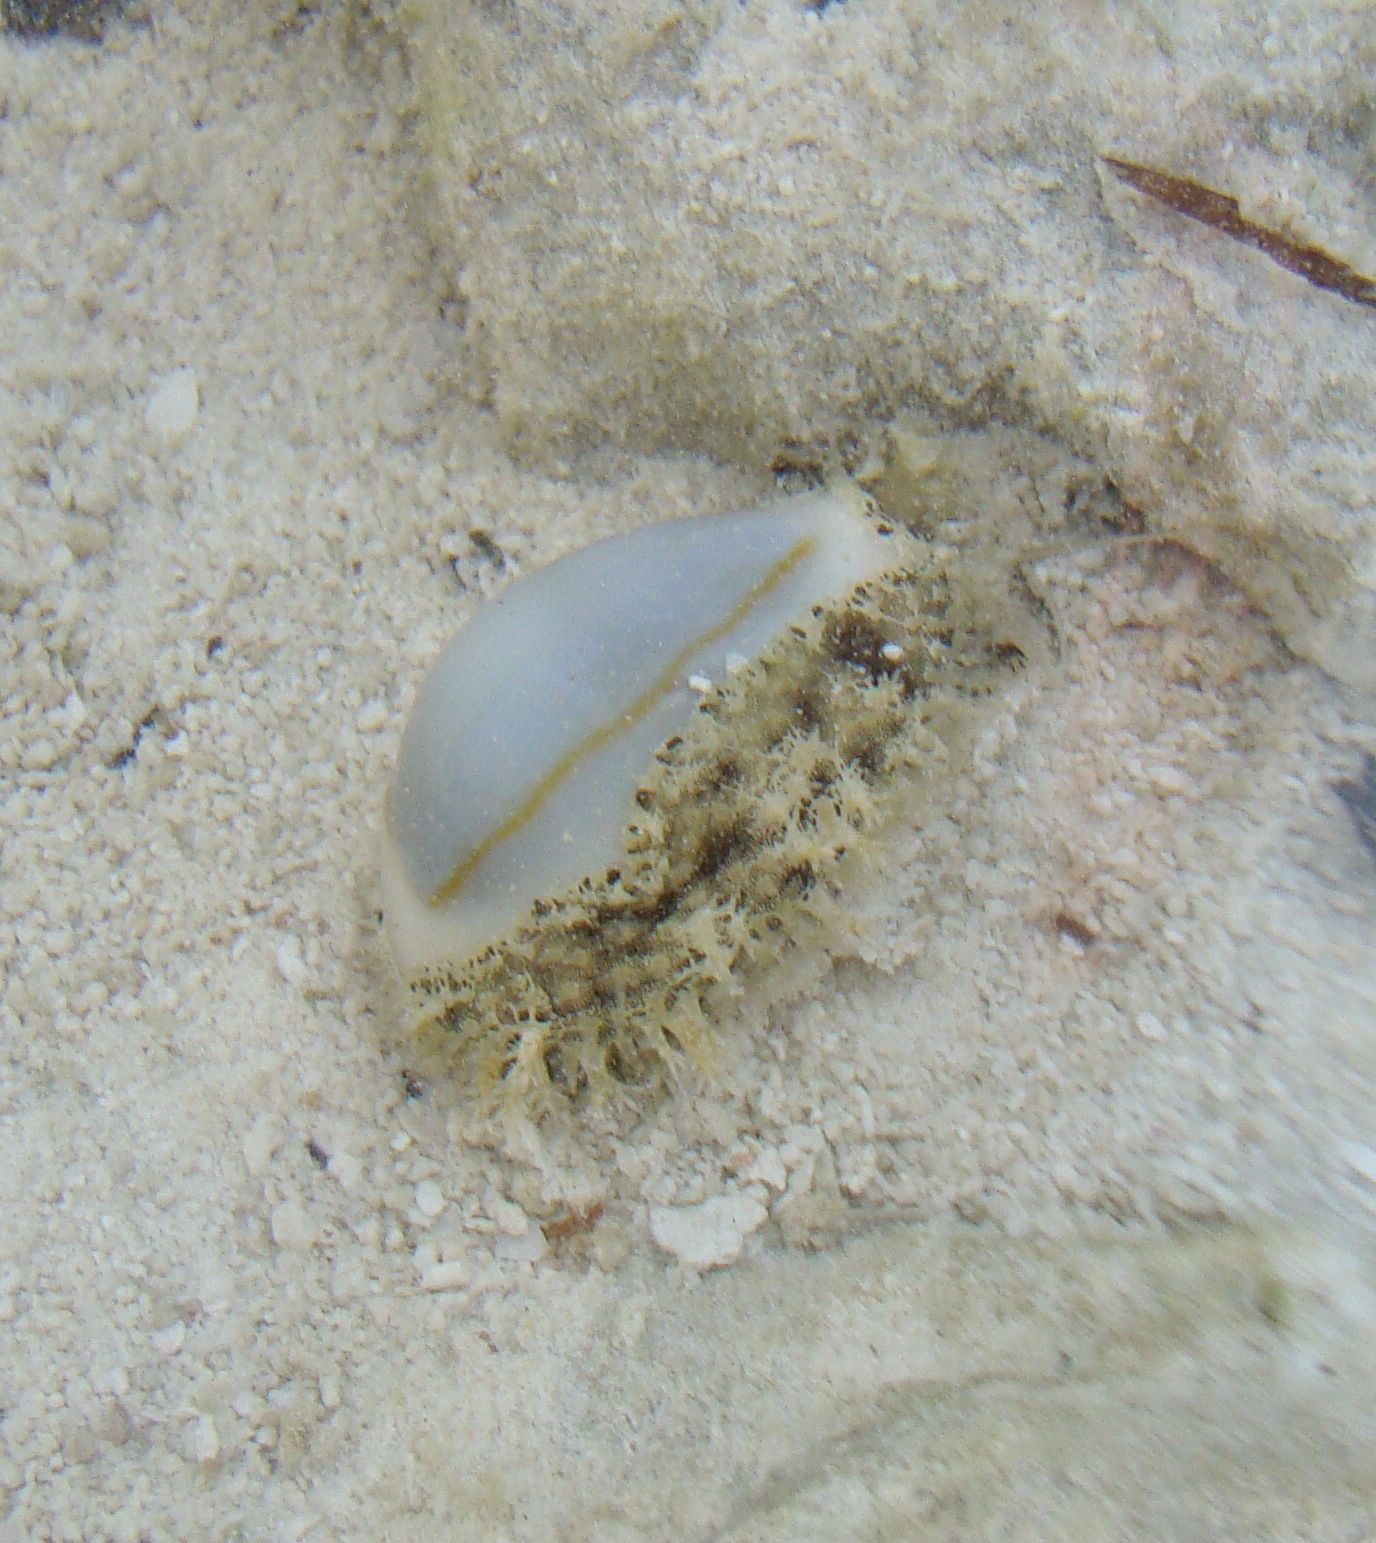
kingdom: Animalia
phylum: Mollusca
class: Gastropoda
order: Littorinimorpha
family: Cypraeidae
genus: Monetaria
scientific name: Monetaria annulus
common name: Ring cowrie
